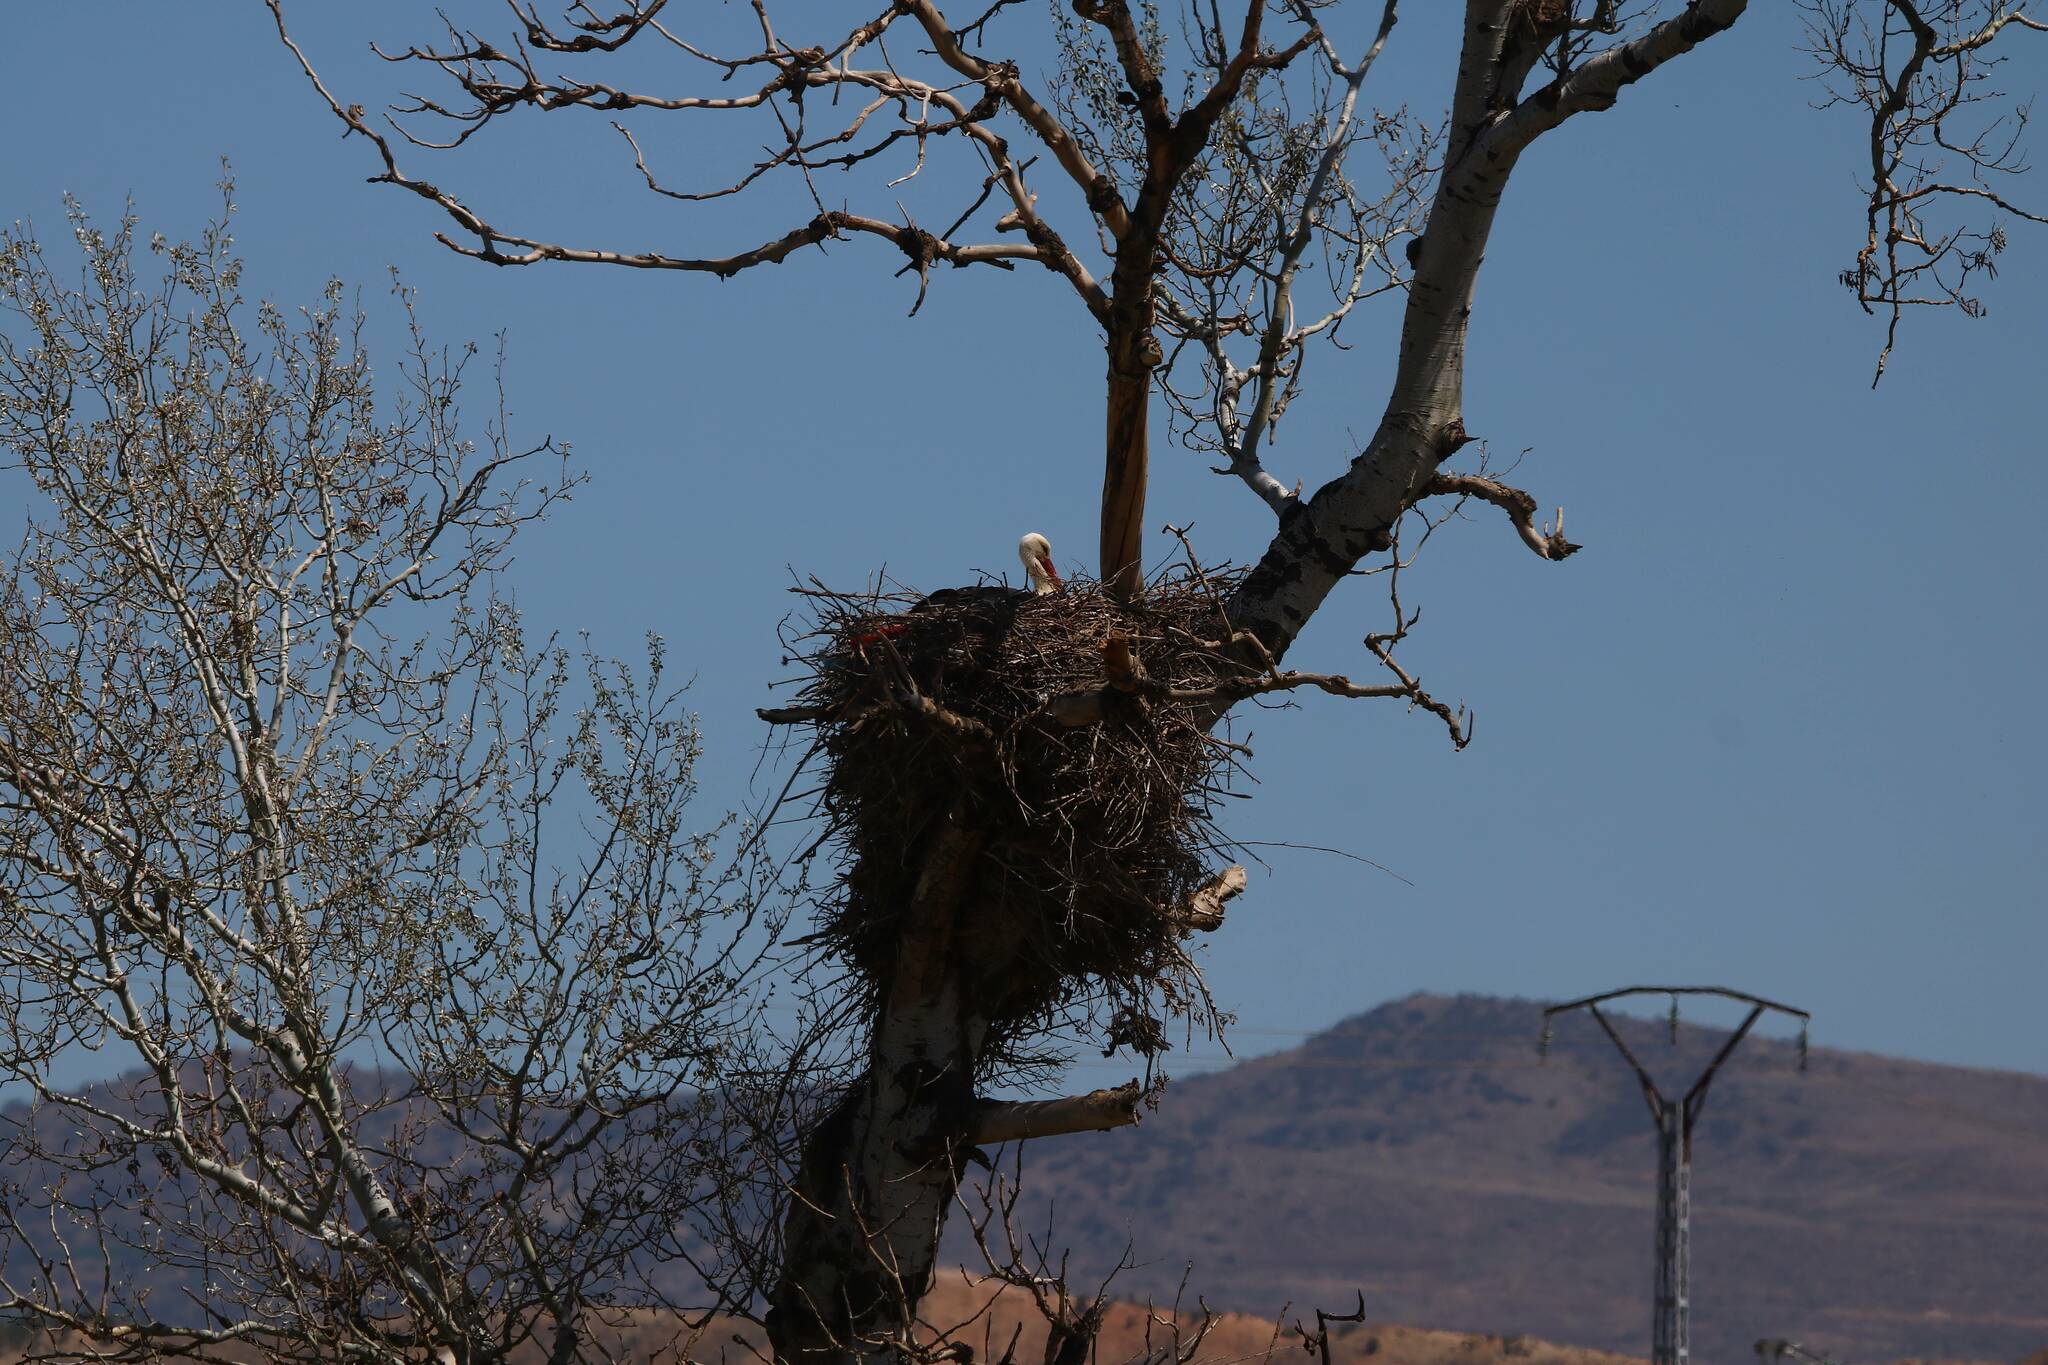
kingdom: Animalia
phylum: Chordata
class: Aves
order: Ciconiiformes
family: Ciconiidae
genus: Ciconia
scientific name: Ciconia ciconia
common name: White stork
